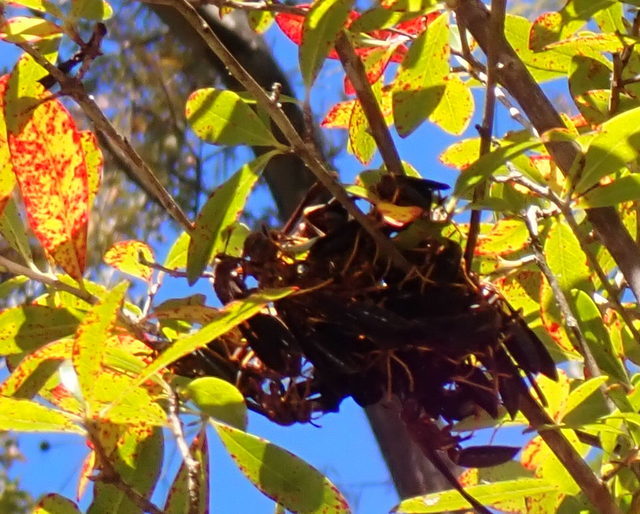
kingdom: Animalia
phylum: Arthropoda
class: Insecta
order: Hymenoptera
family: Eumenidae
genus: Polistes
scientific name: Polistes annularis
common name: Ringed paper wasp
